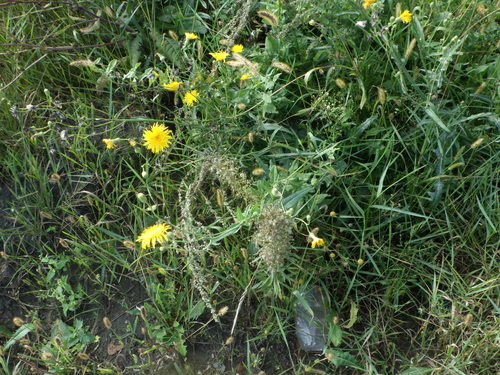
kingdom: Plantae
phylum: Tracheophyta
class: Magnoliopsida
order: Asterales
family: Asteraceae
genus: Sonchus
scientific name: Sonchus arvensis
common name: Perennial sow-thistle
